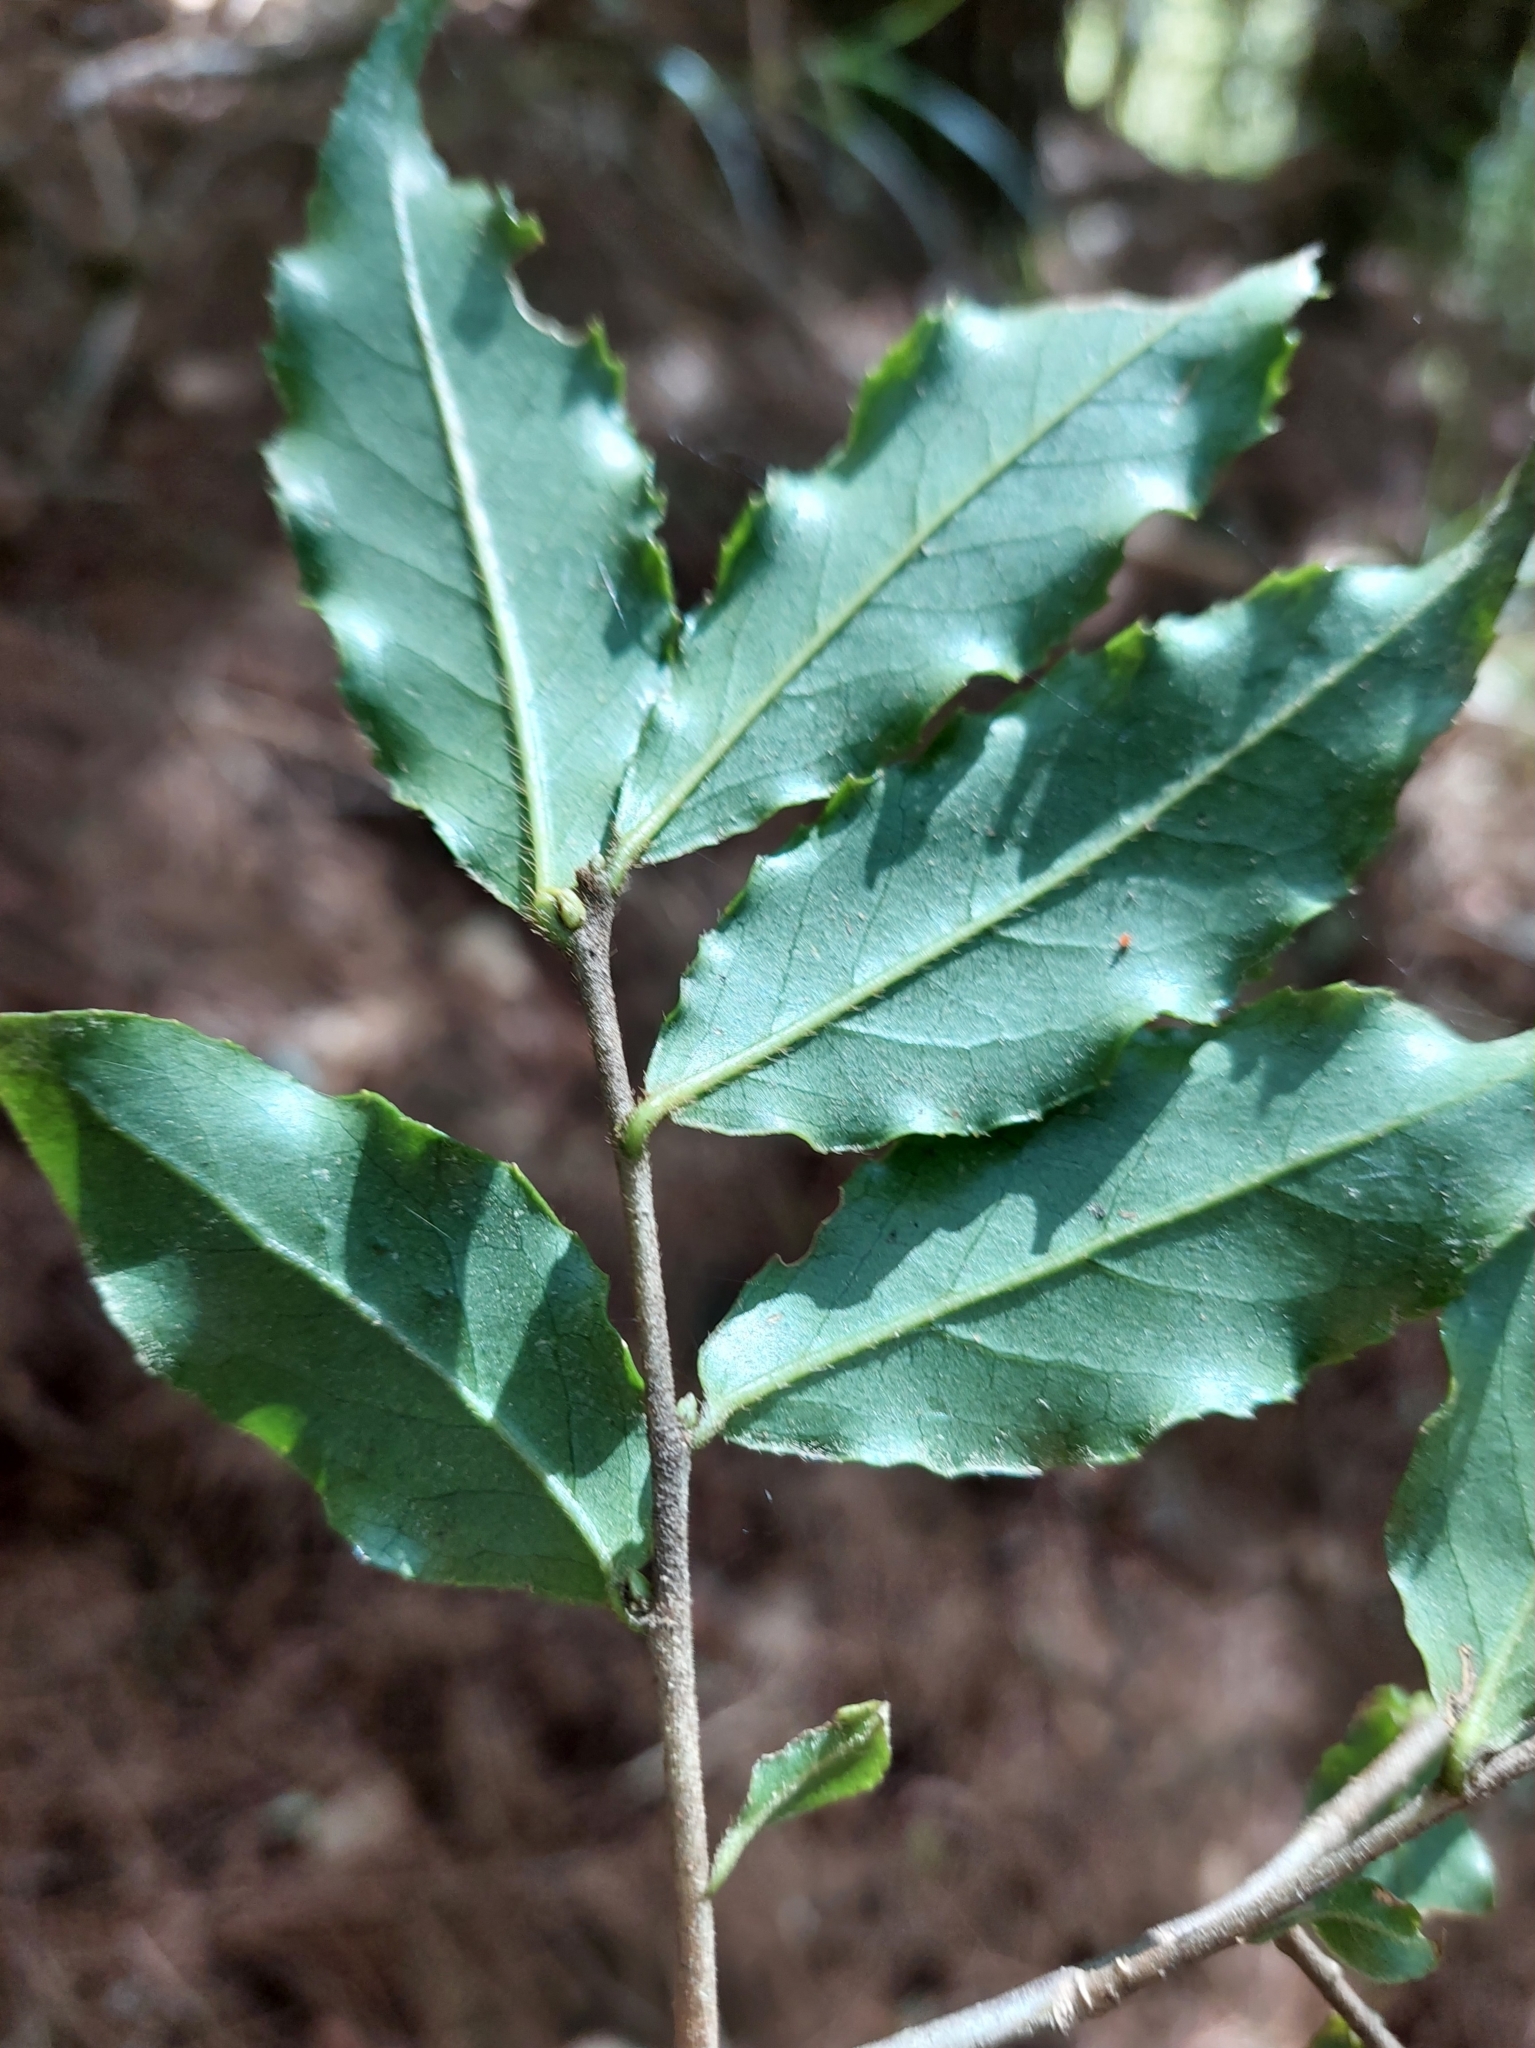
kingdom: Plantae
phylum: Tracheophyta
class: Magnoliopsida
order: Ericales
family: Symplocaceae
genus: Symplocos
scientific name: Symplocos lancifolia
